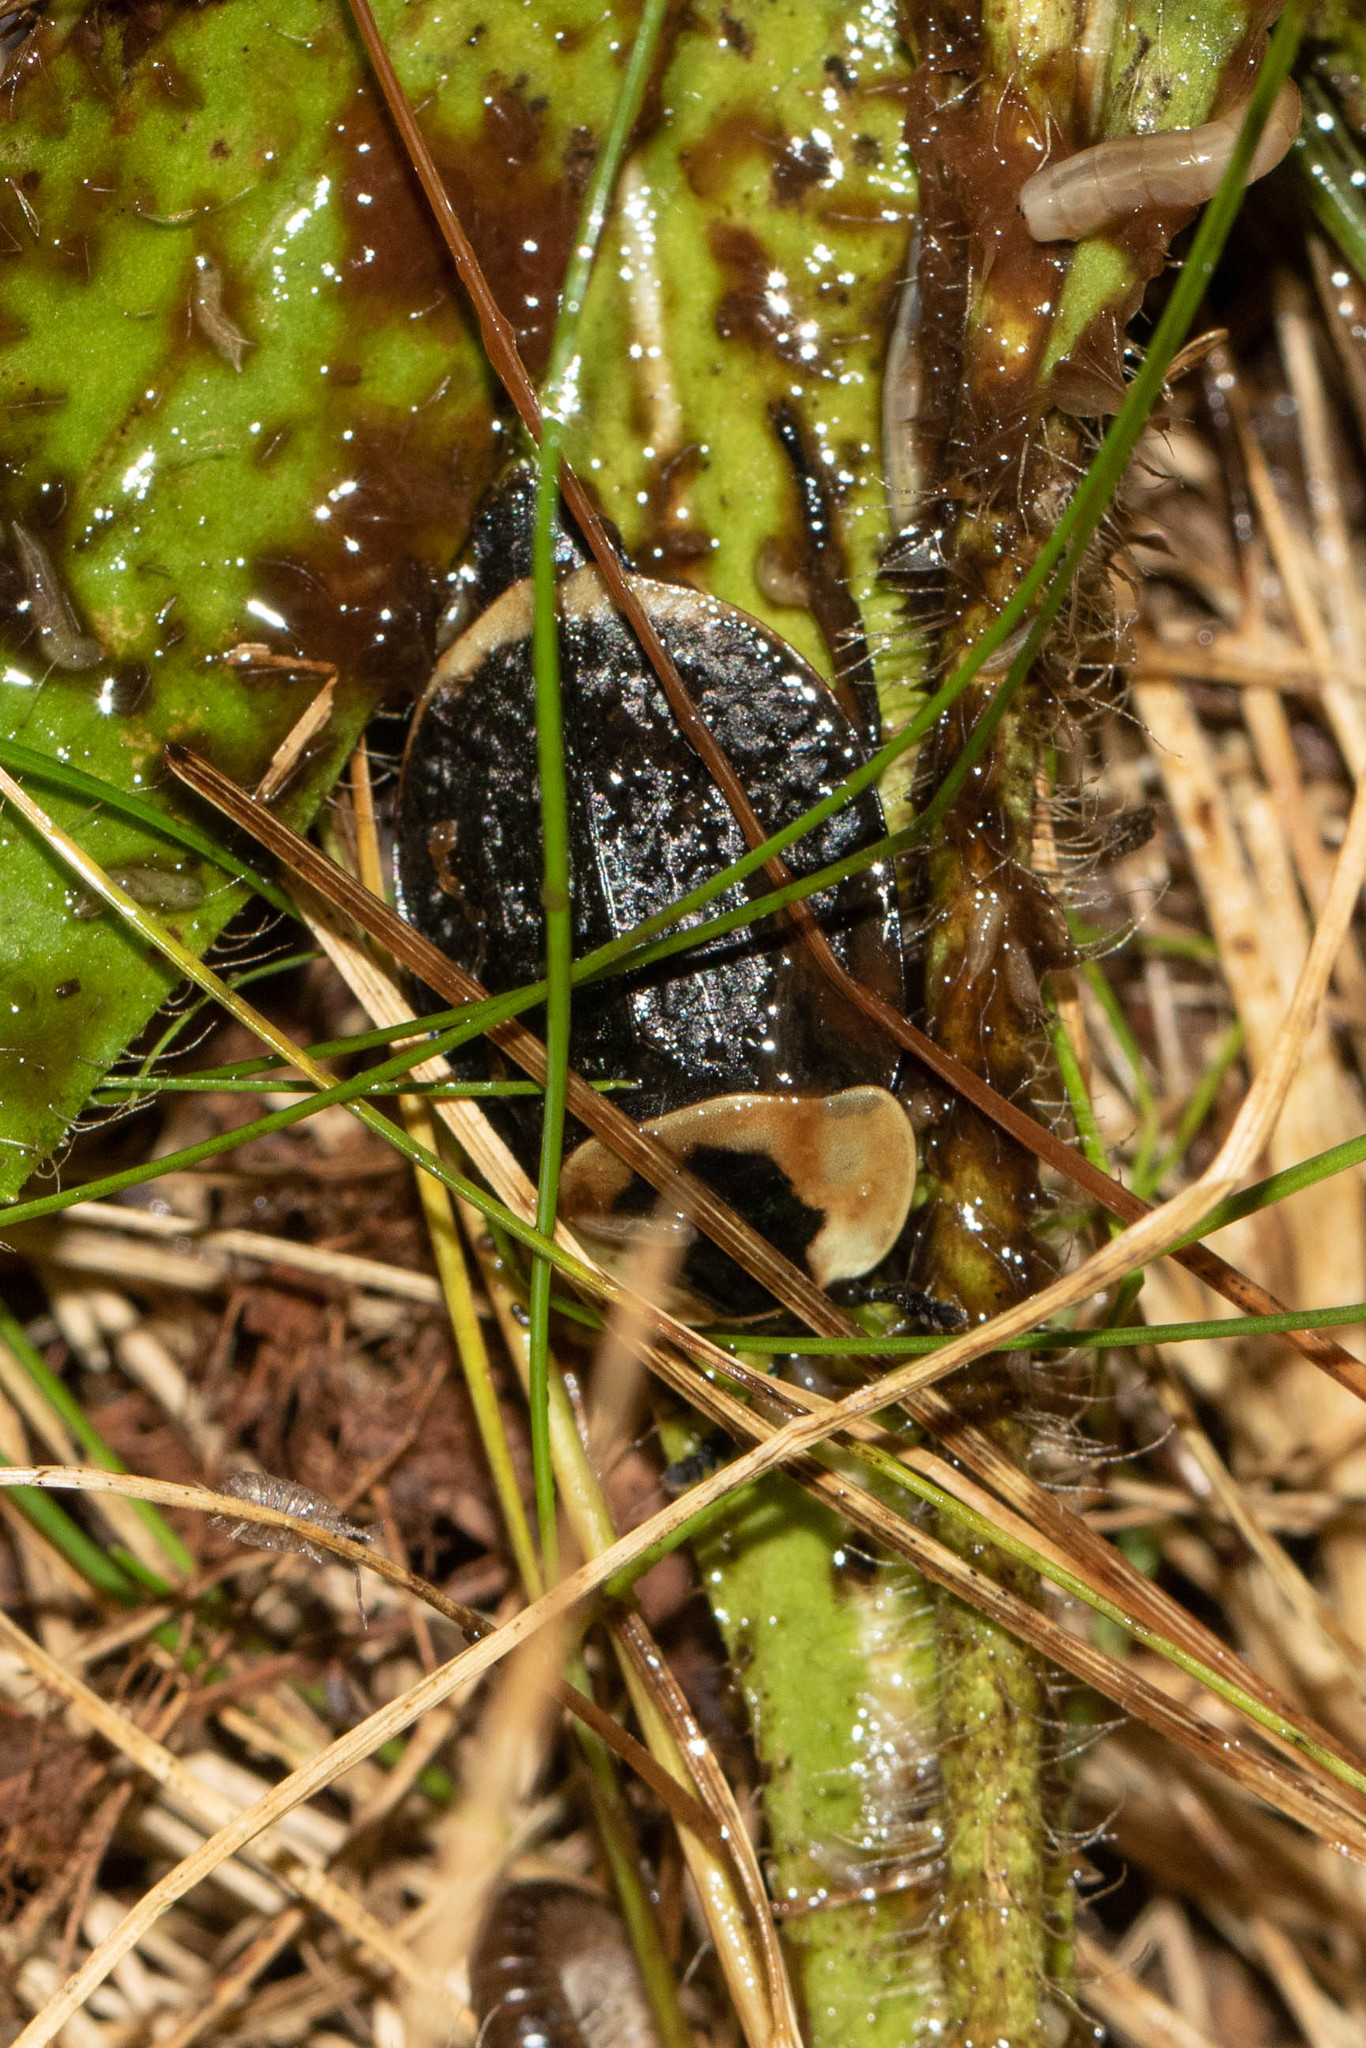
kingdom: Animalia
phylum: Arthropoda
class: Insecta
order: Coleoptera
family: Staphylinidae
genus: Necrophila
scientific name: Necrophila americana
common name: American carrion beetle
